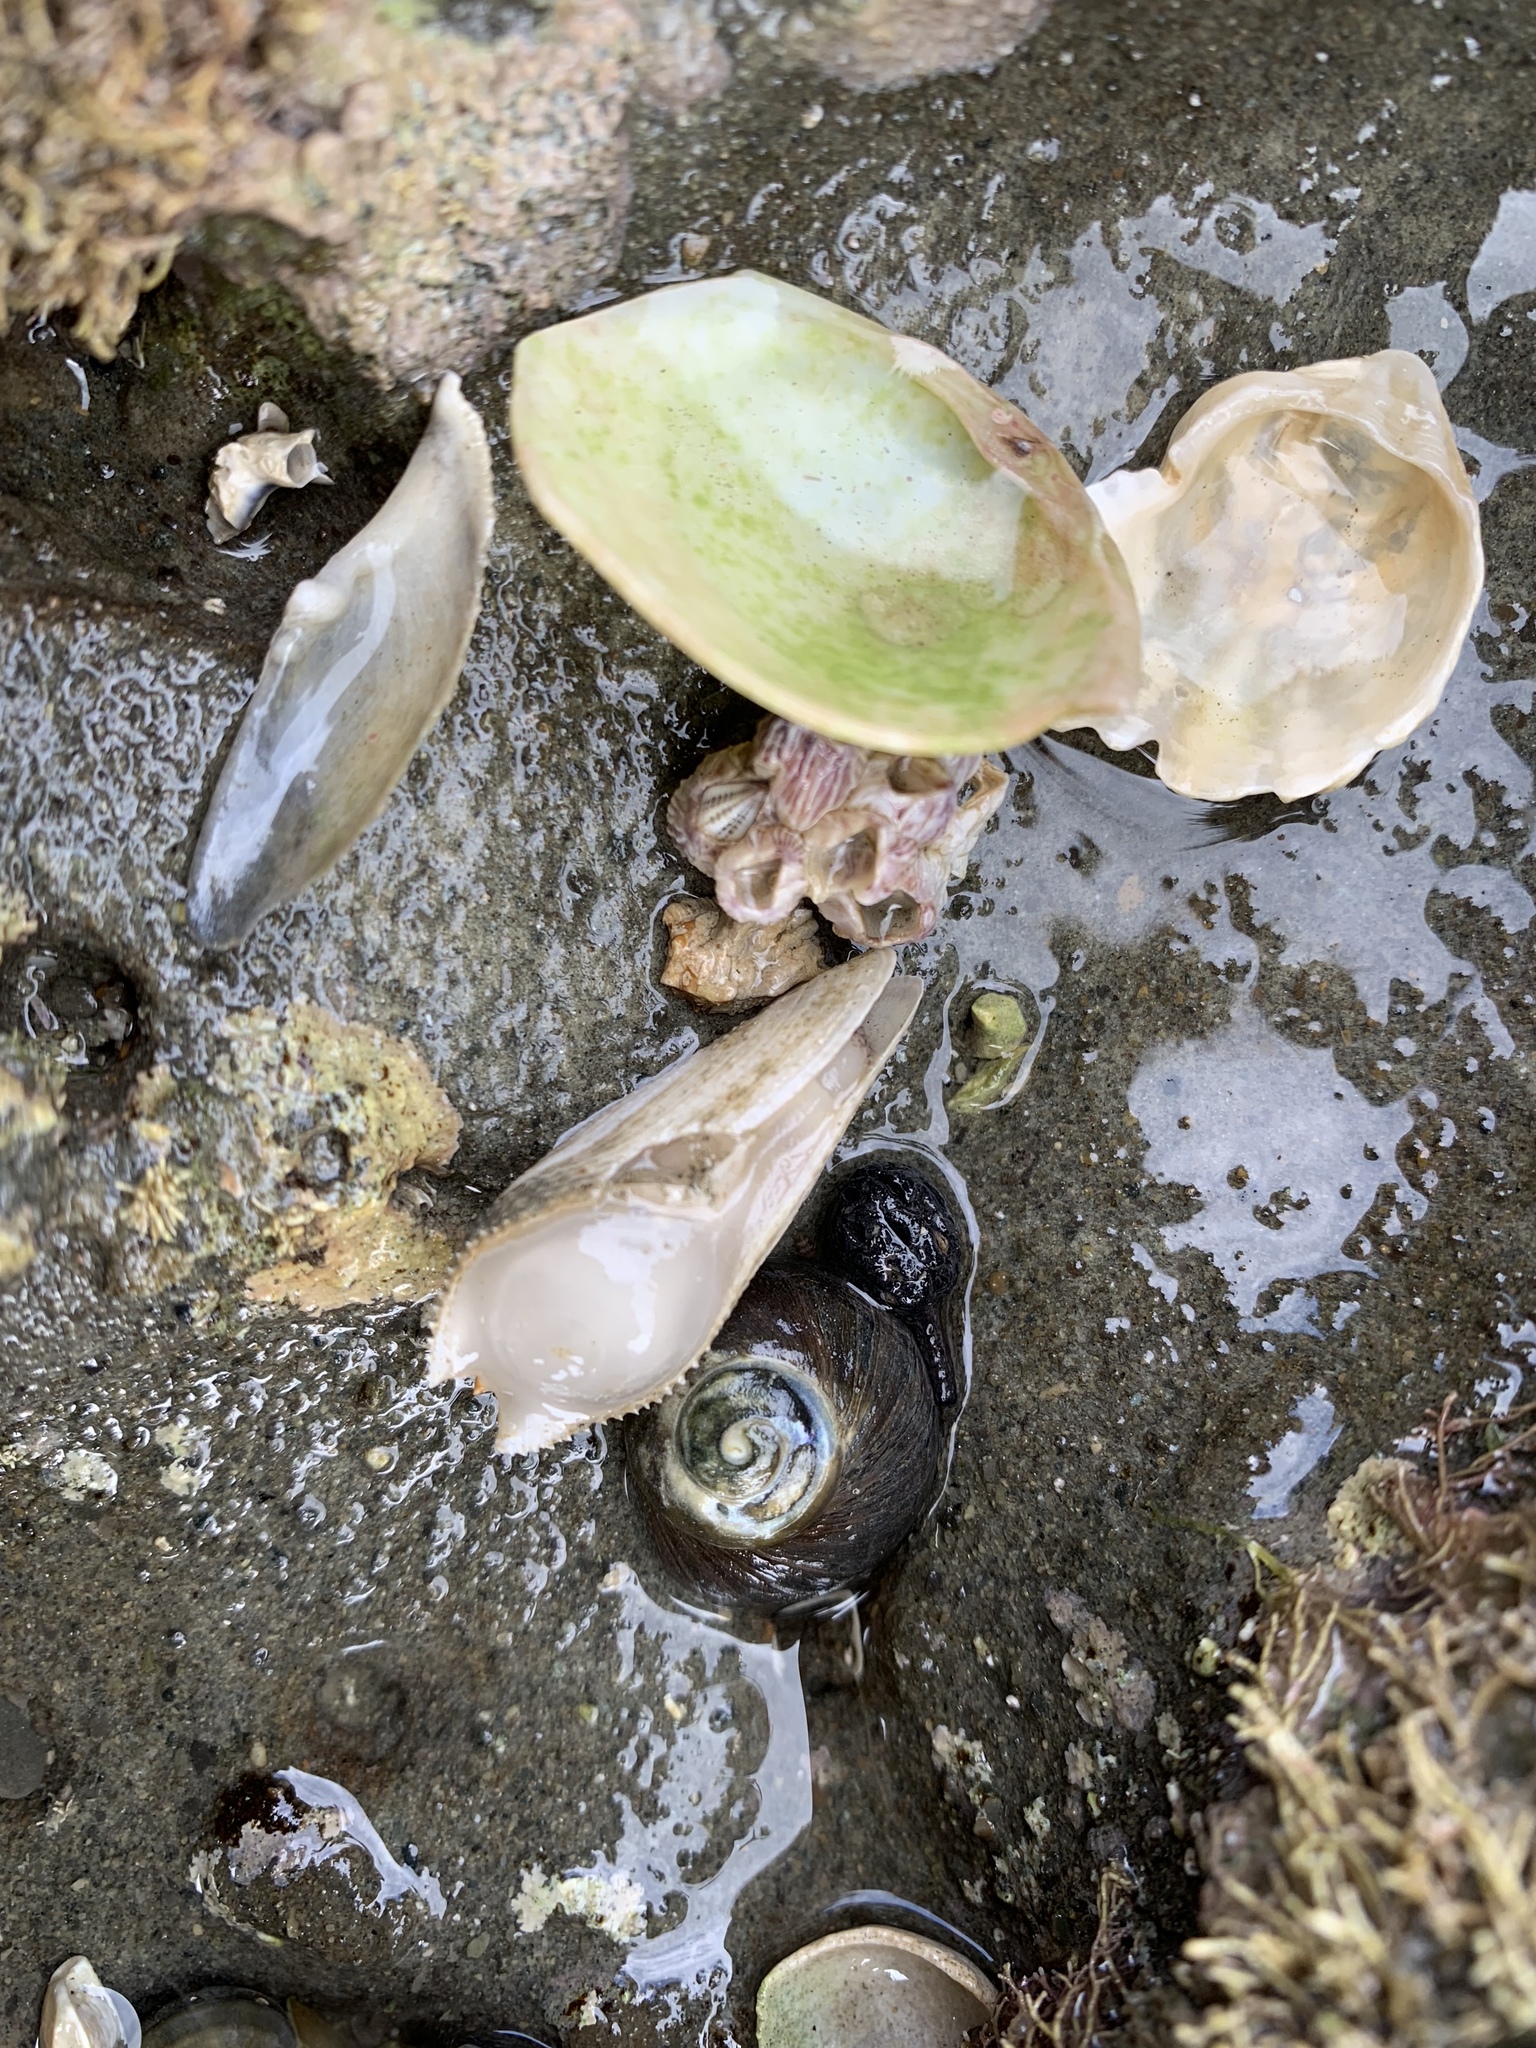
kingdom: Animalia
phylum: Mollusca
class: Bivalvia
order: Myida
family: Pholadidae
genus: Barnea
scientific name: Barnea similis
